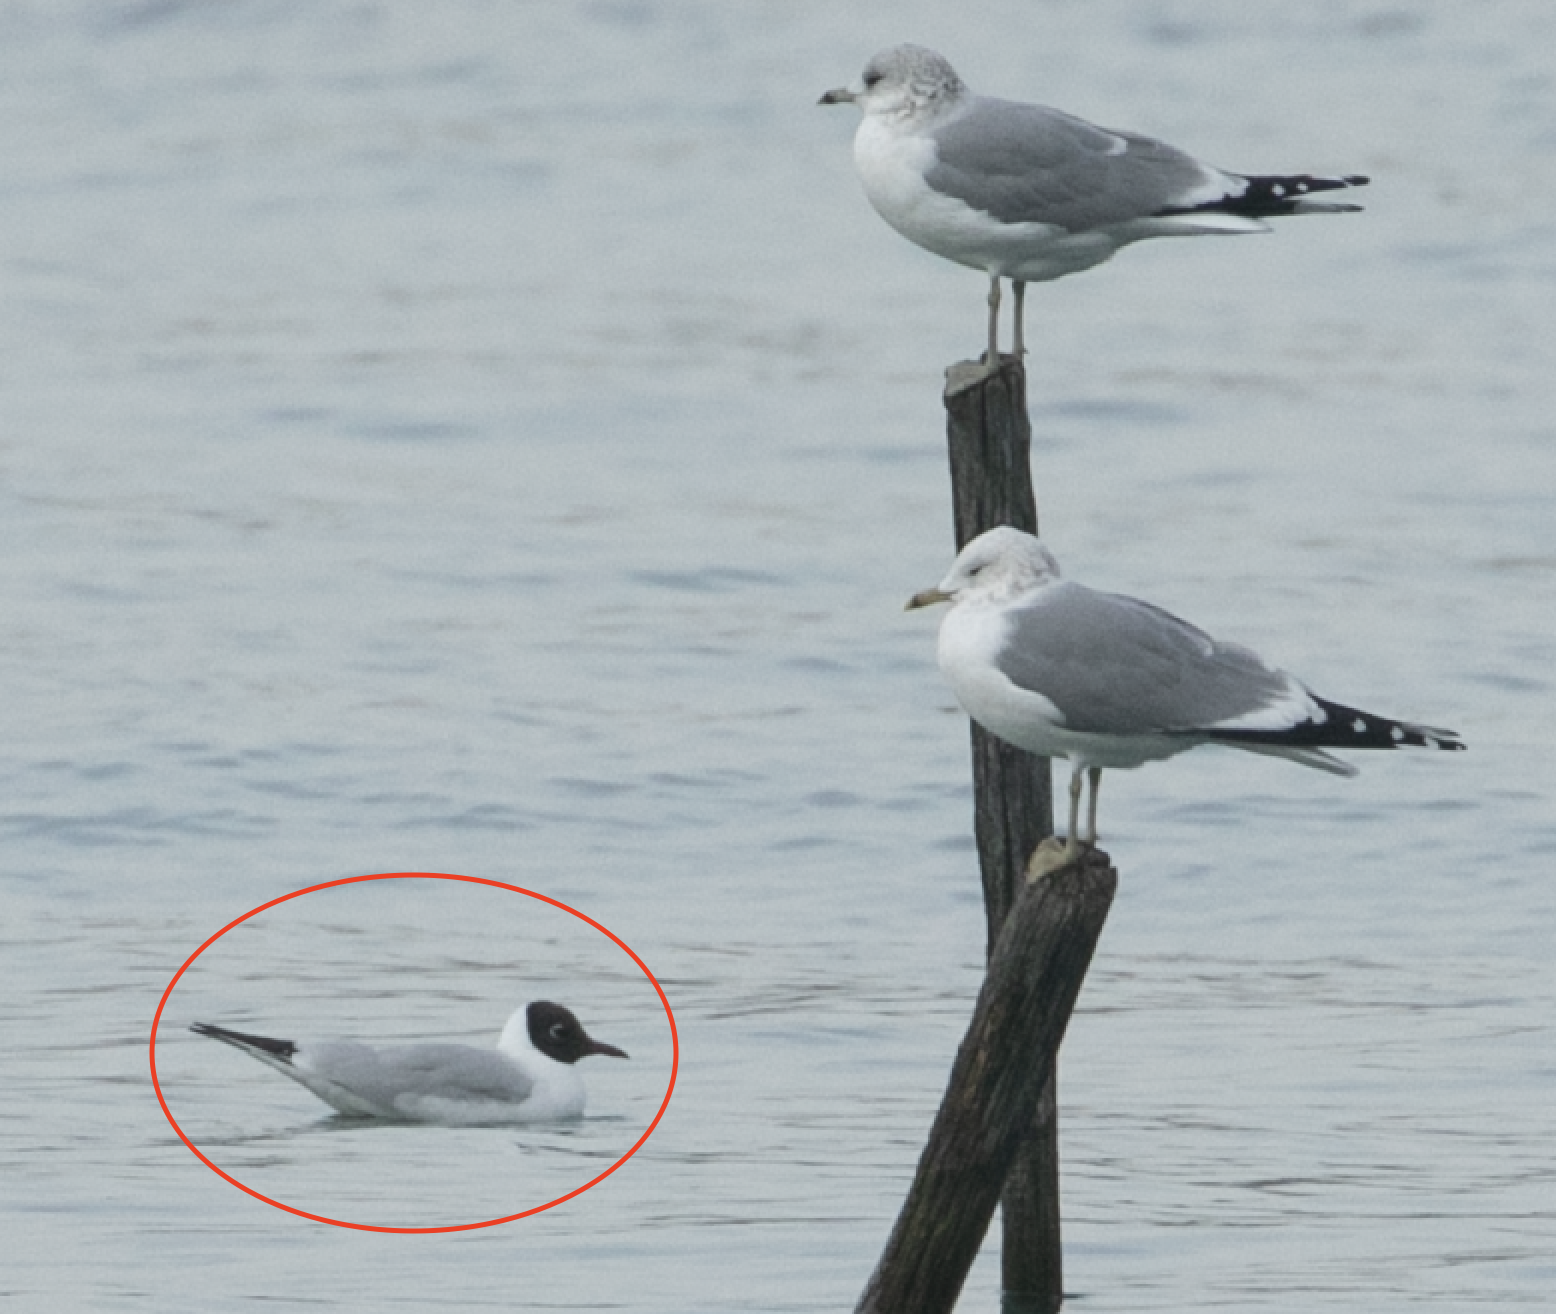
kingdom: Animalia
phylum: Chordata
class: Aves
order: Charadriiformes
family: Laridae
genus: Chroicocephalus
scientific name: Chroicocephalus ridibundus
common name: Black-headed gull
